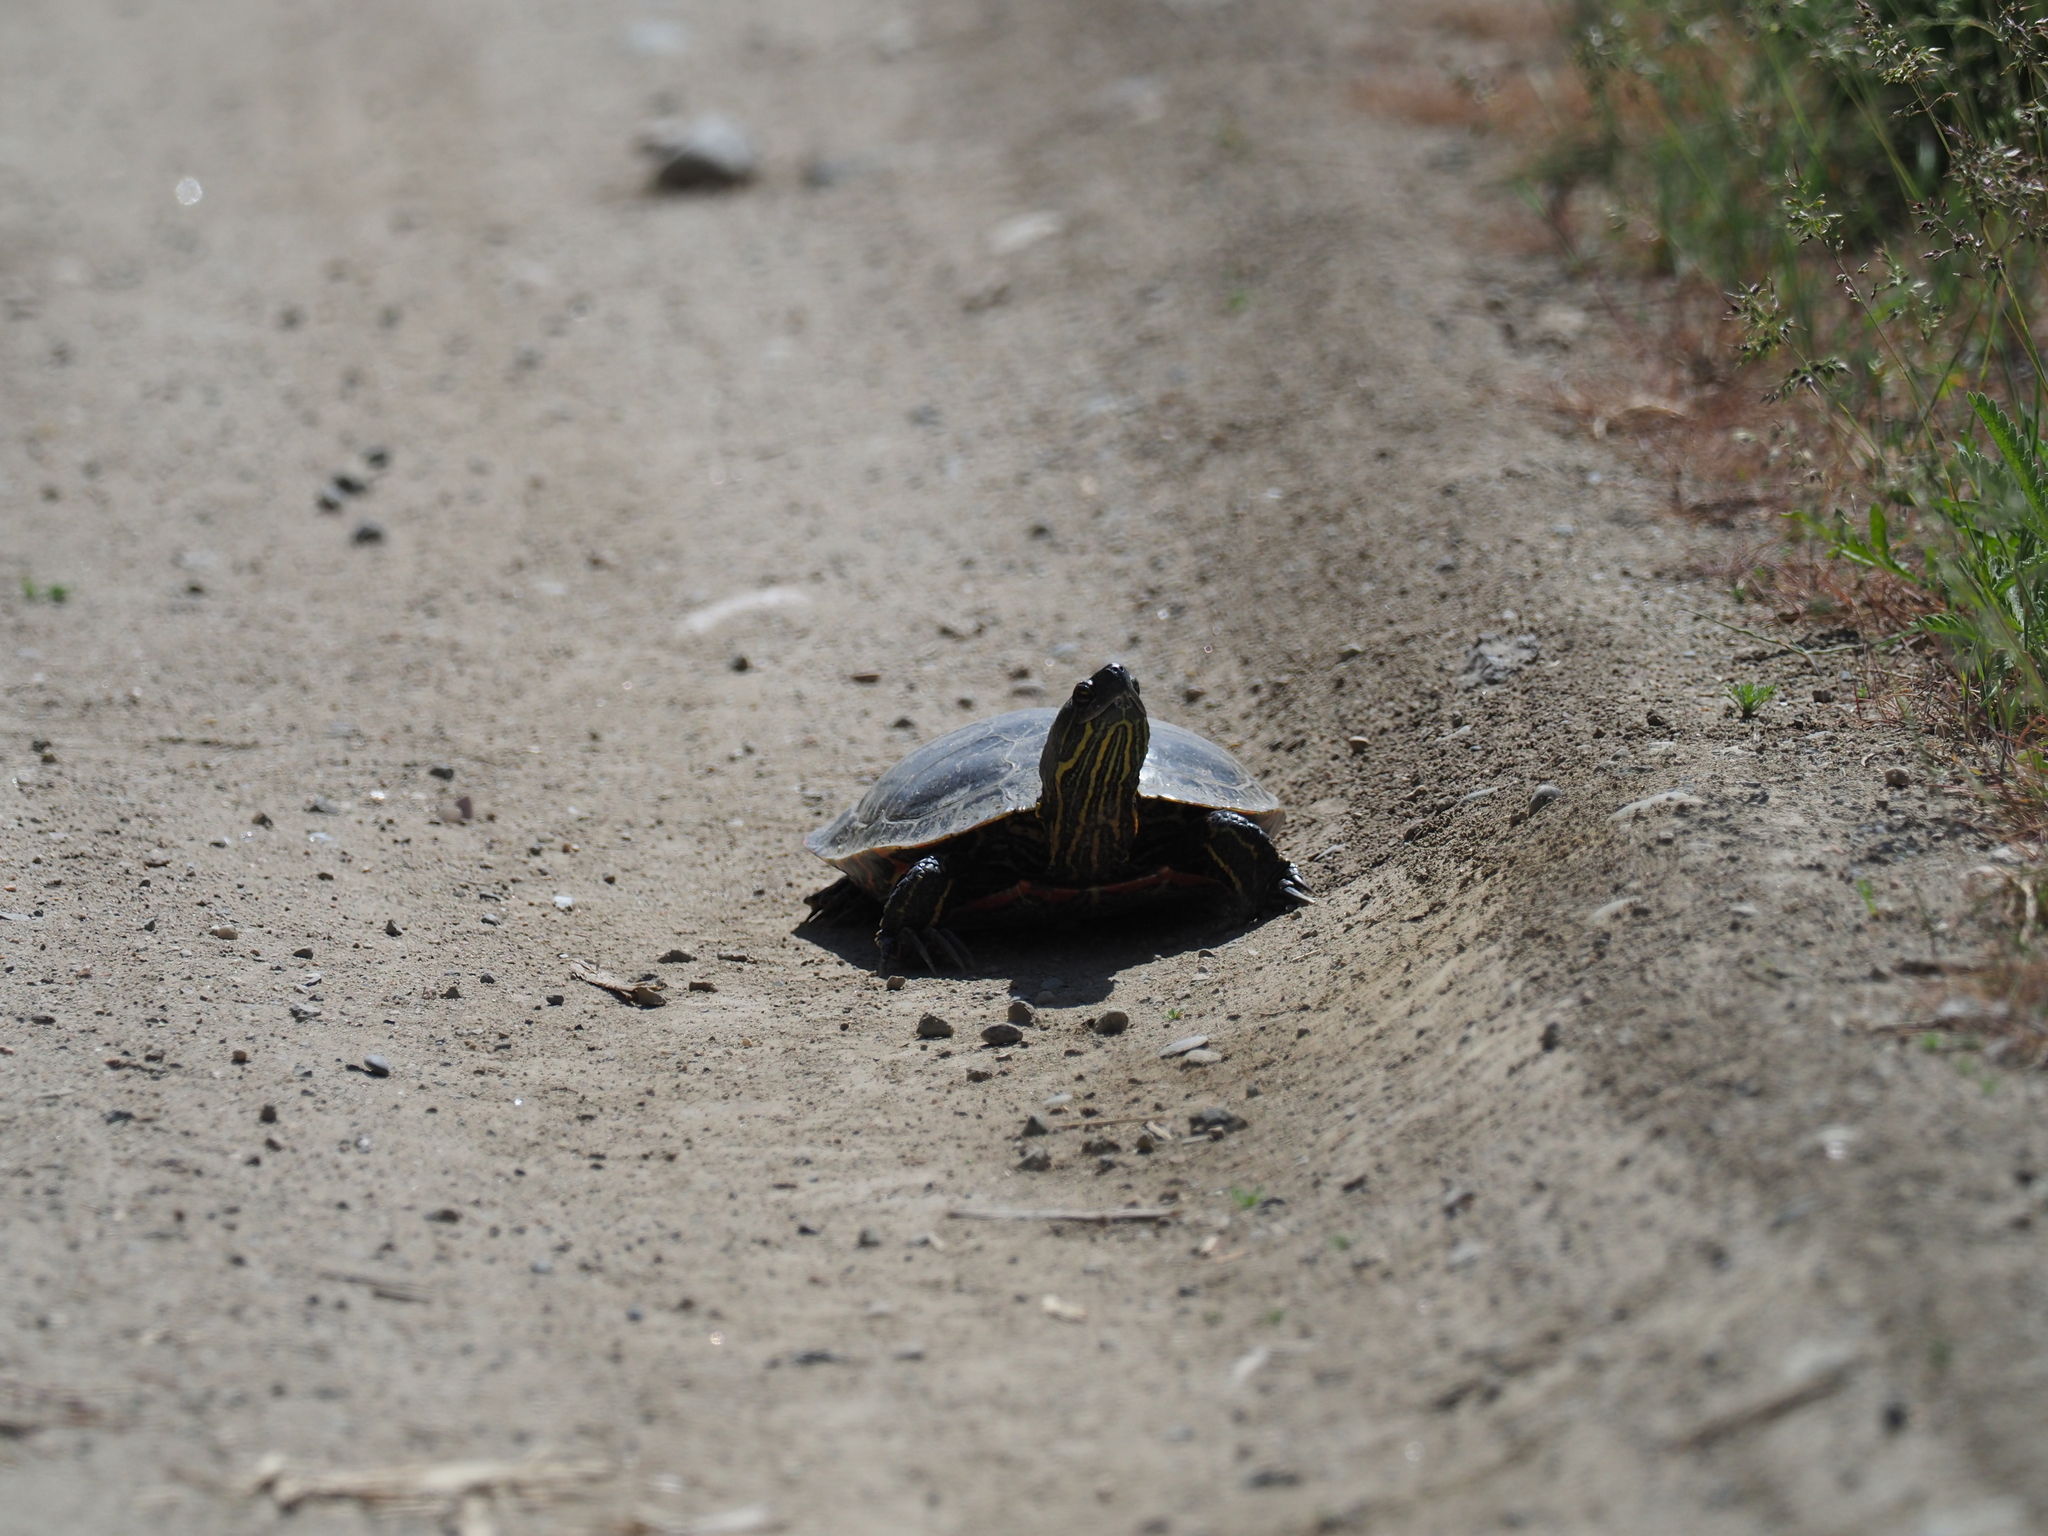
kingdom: Animalia
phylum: Chordata
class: Testudines
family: Emydidae
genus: Chrysemys
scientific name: Chrysemys picta
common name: Painted turtle
